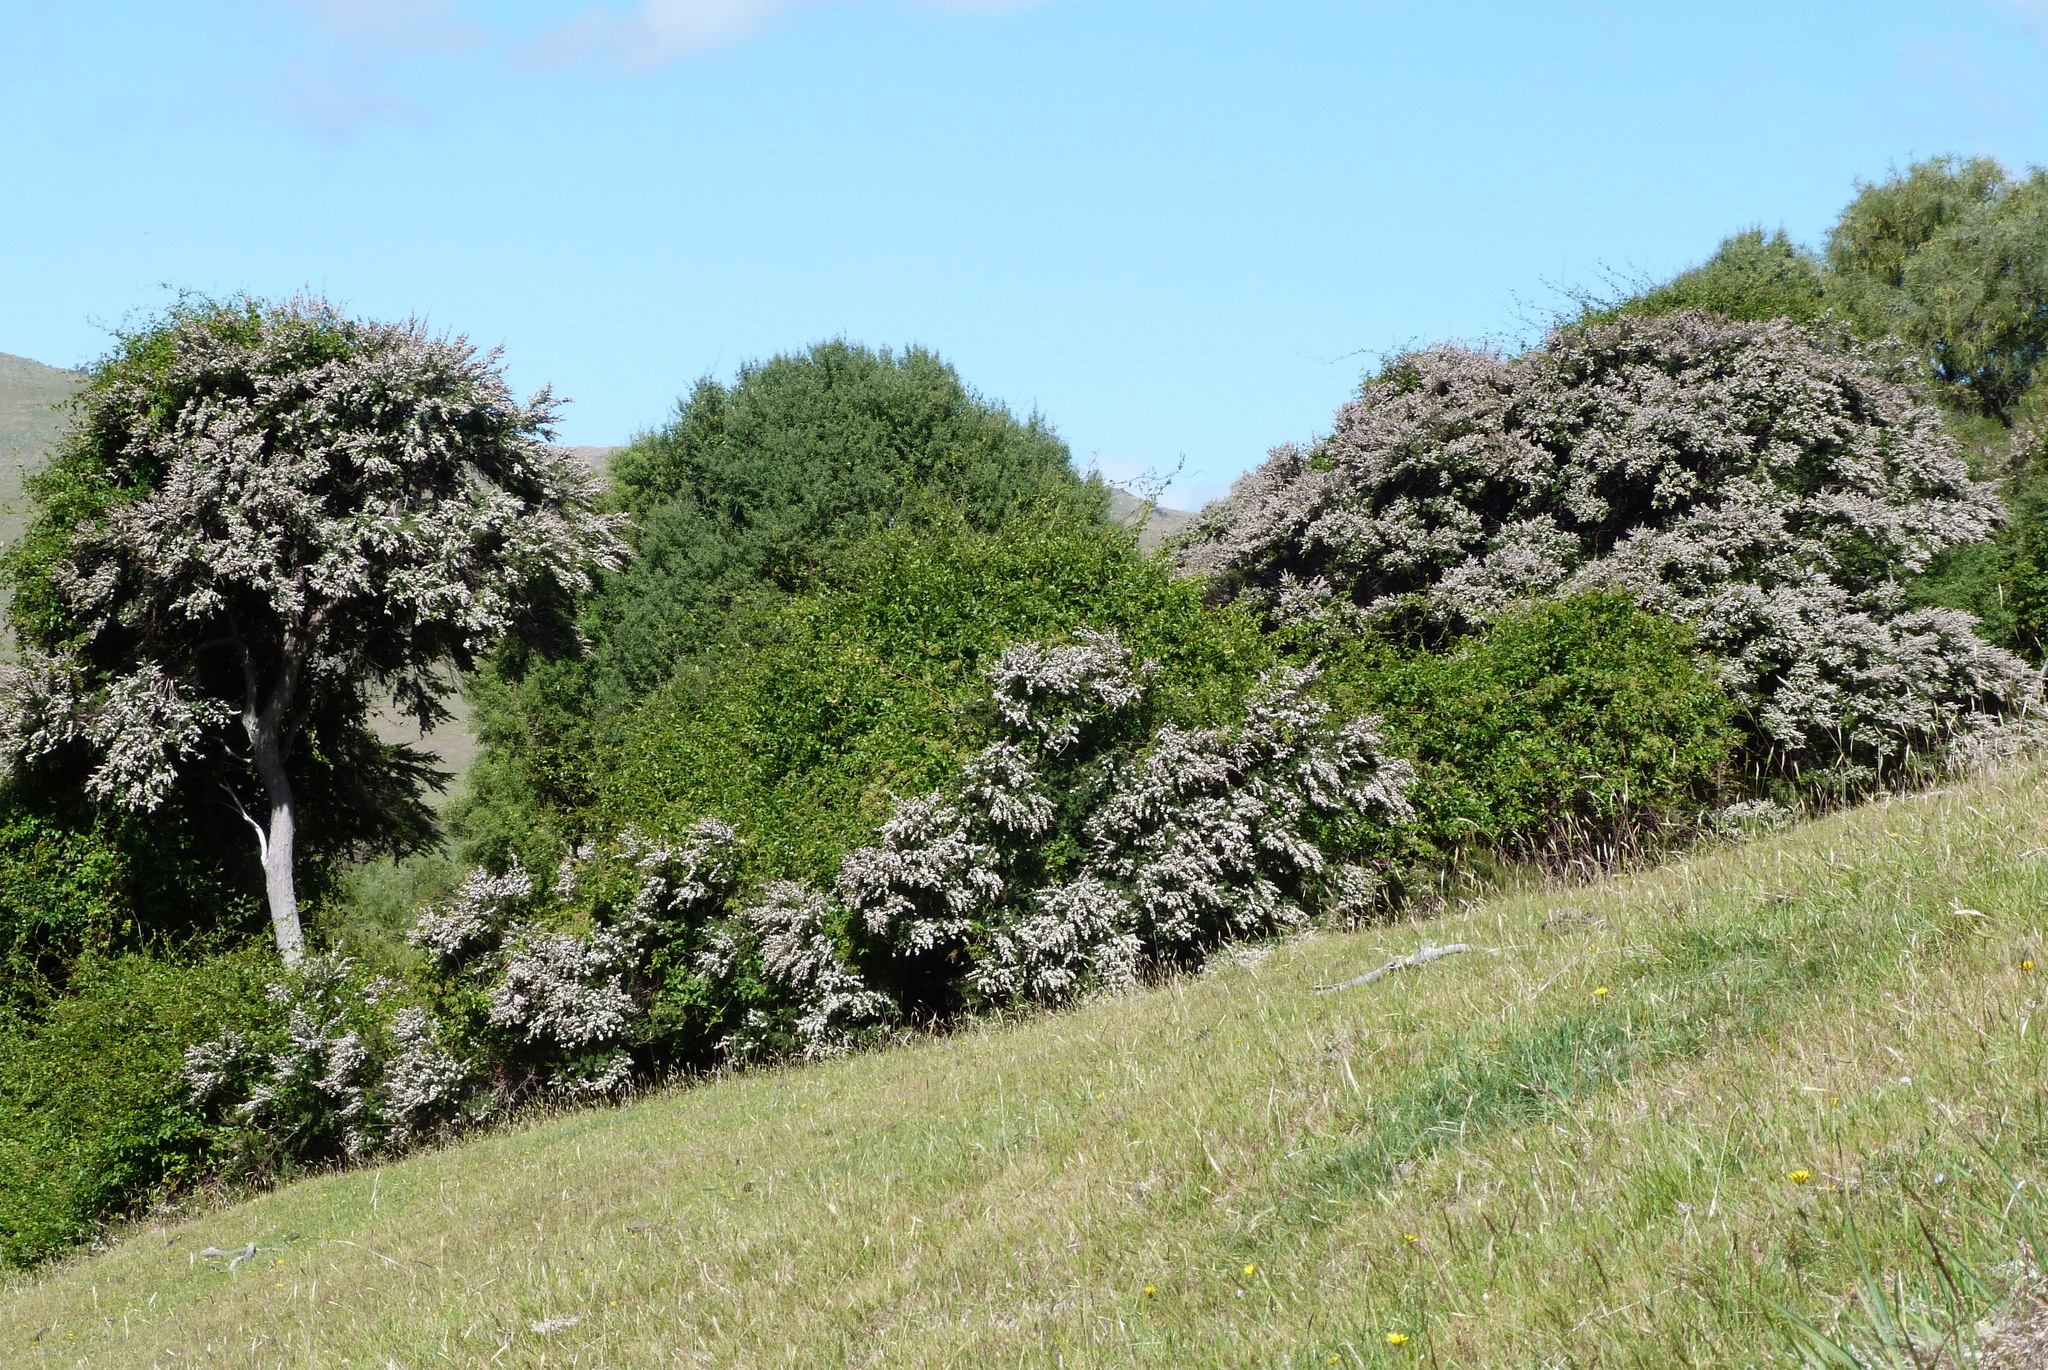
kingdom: Plantae
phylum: Tracheophyta
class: Magnoliopsida
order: Myrtales
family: Myrtaceae
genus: Kunzea
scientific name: Kunzea robusta
